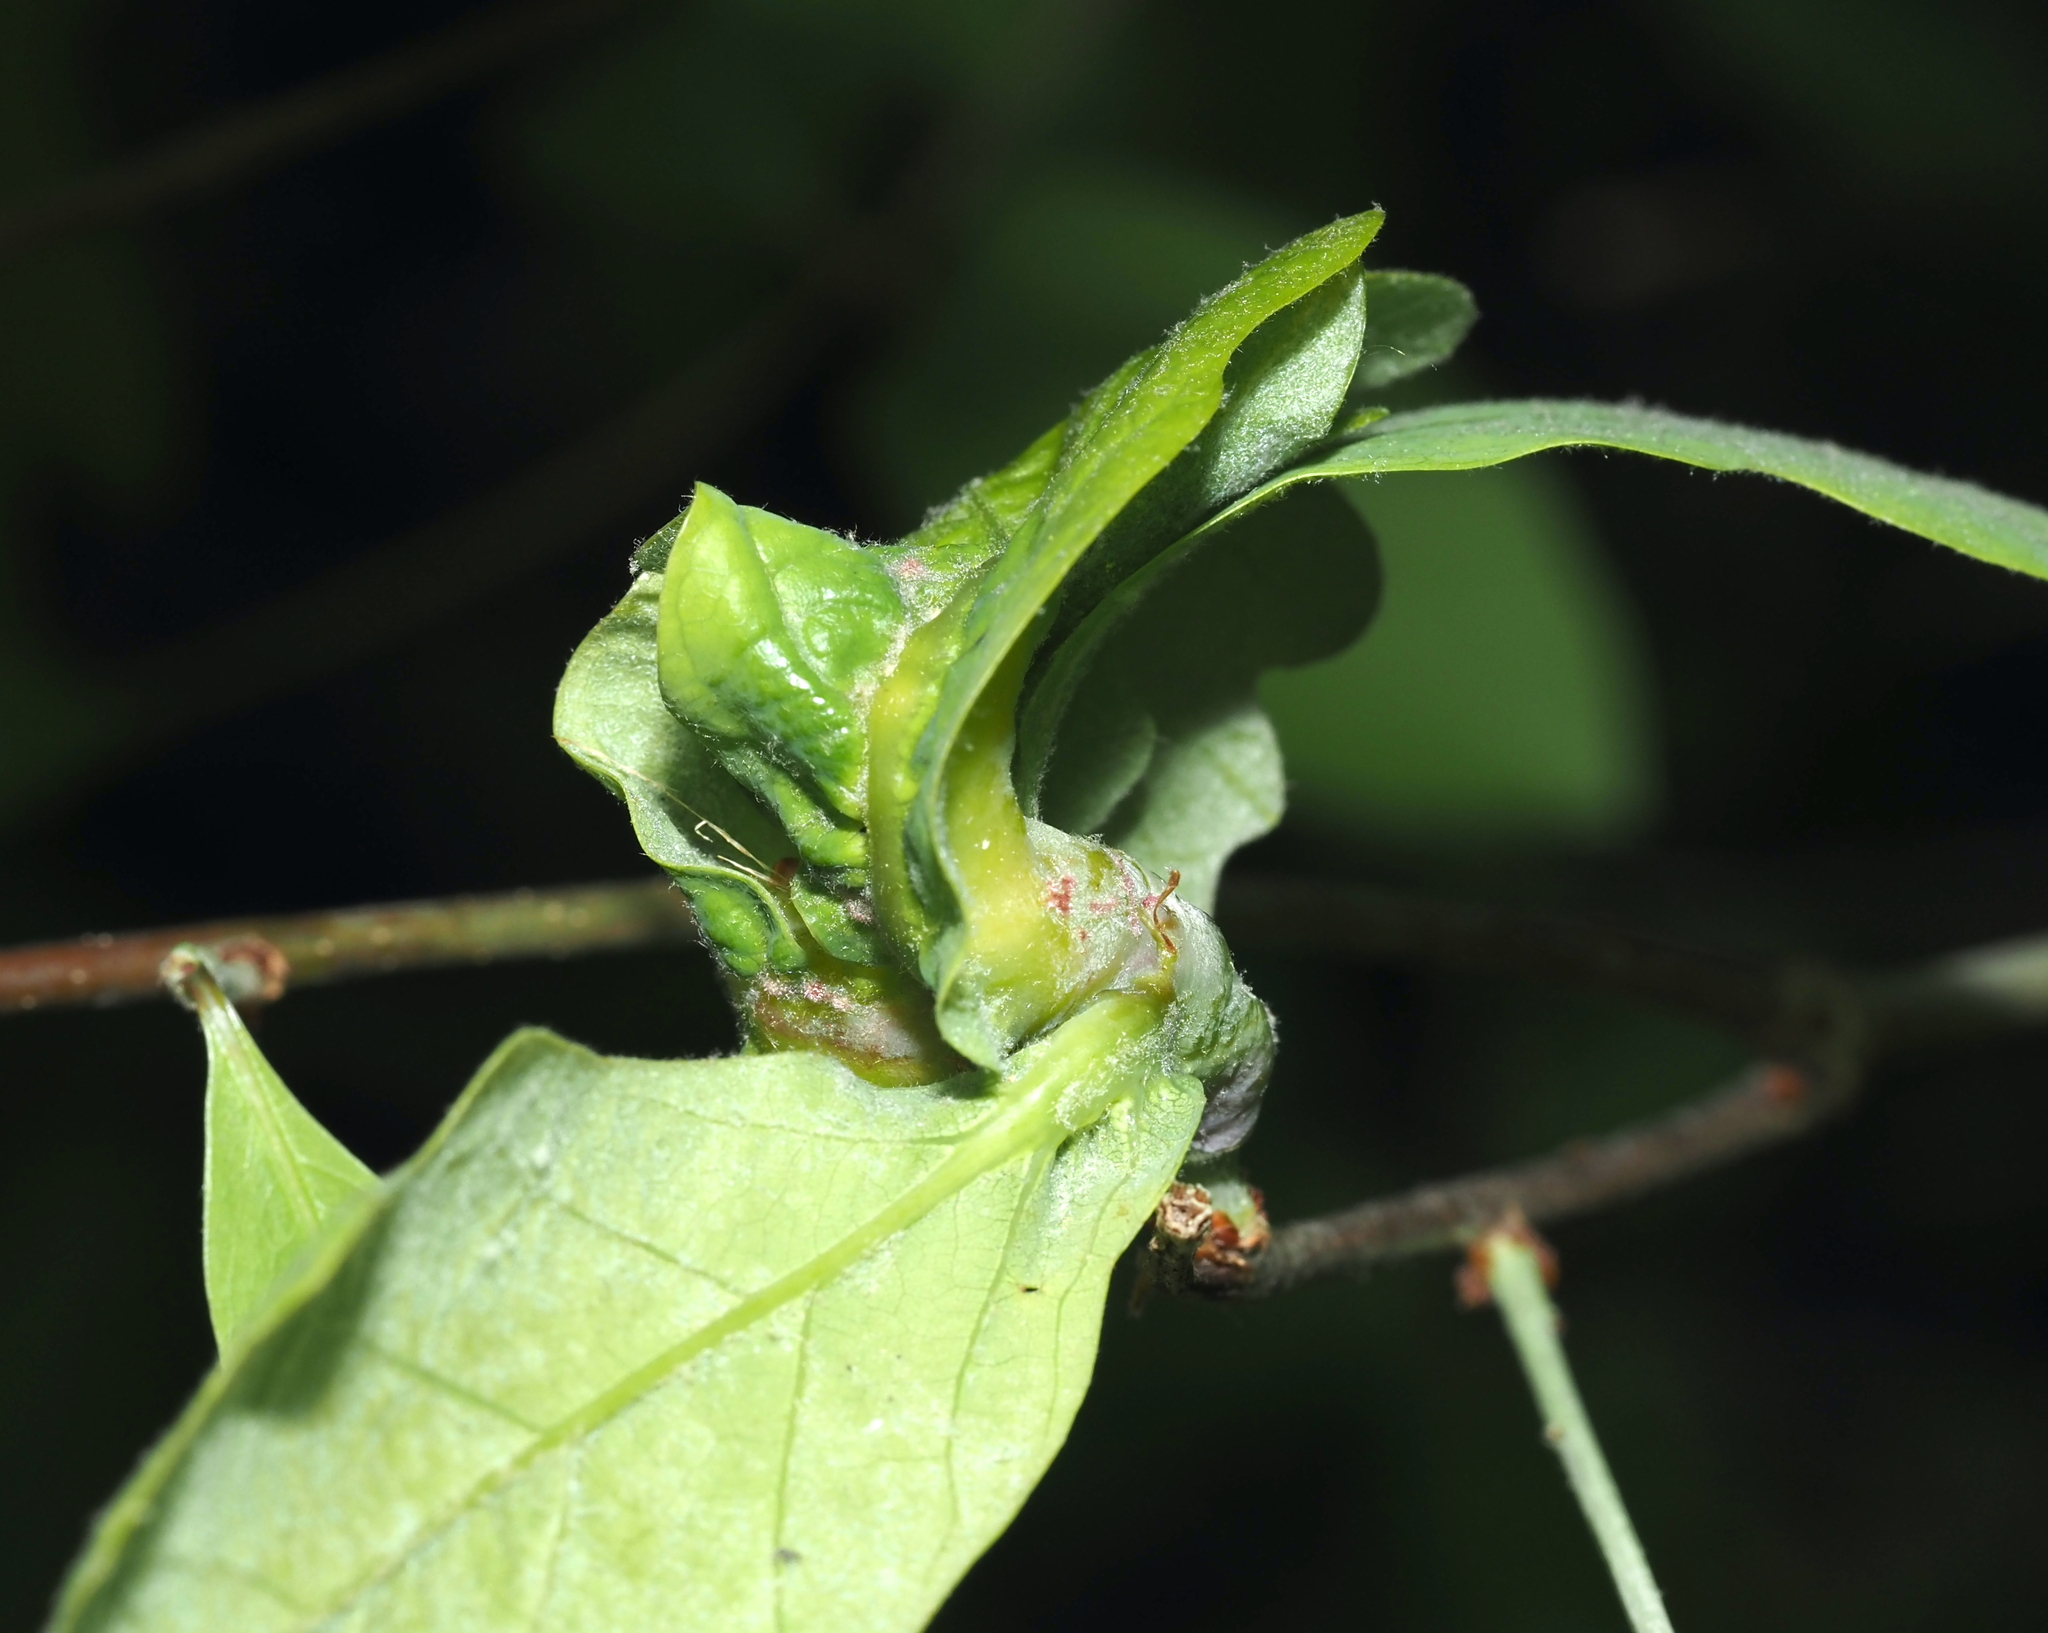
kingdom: Animalia
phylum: Arthropoda
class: Insecta
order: Hymenoptera
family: Cynipidae
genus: Neuroterus
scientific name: Neuroterus quercusbaccarum
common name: Common spangle gall
